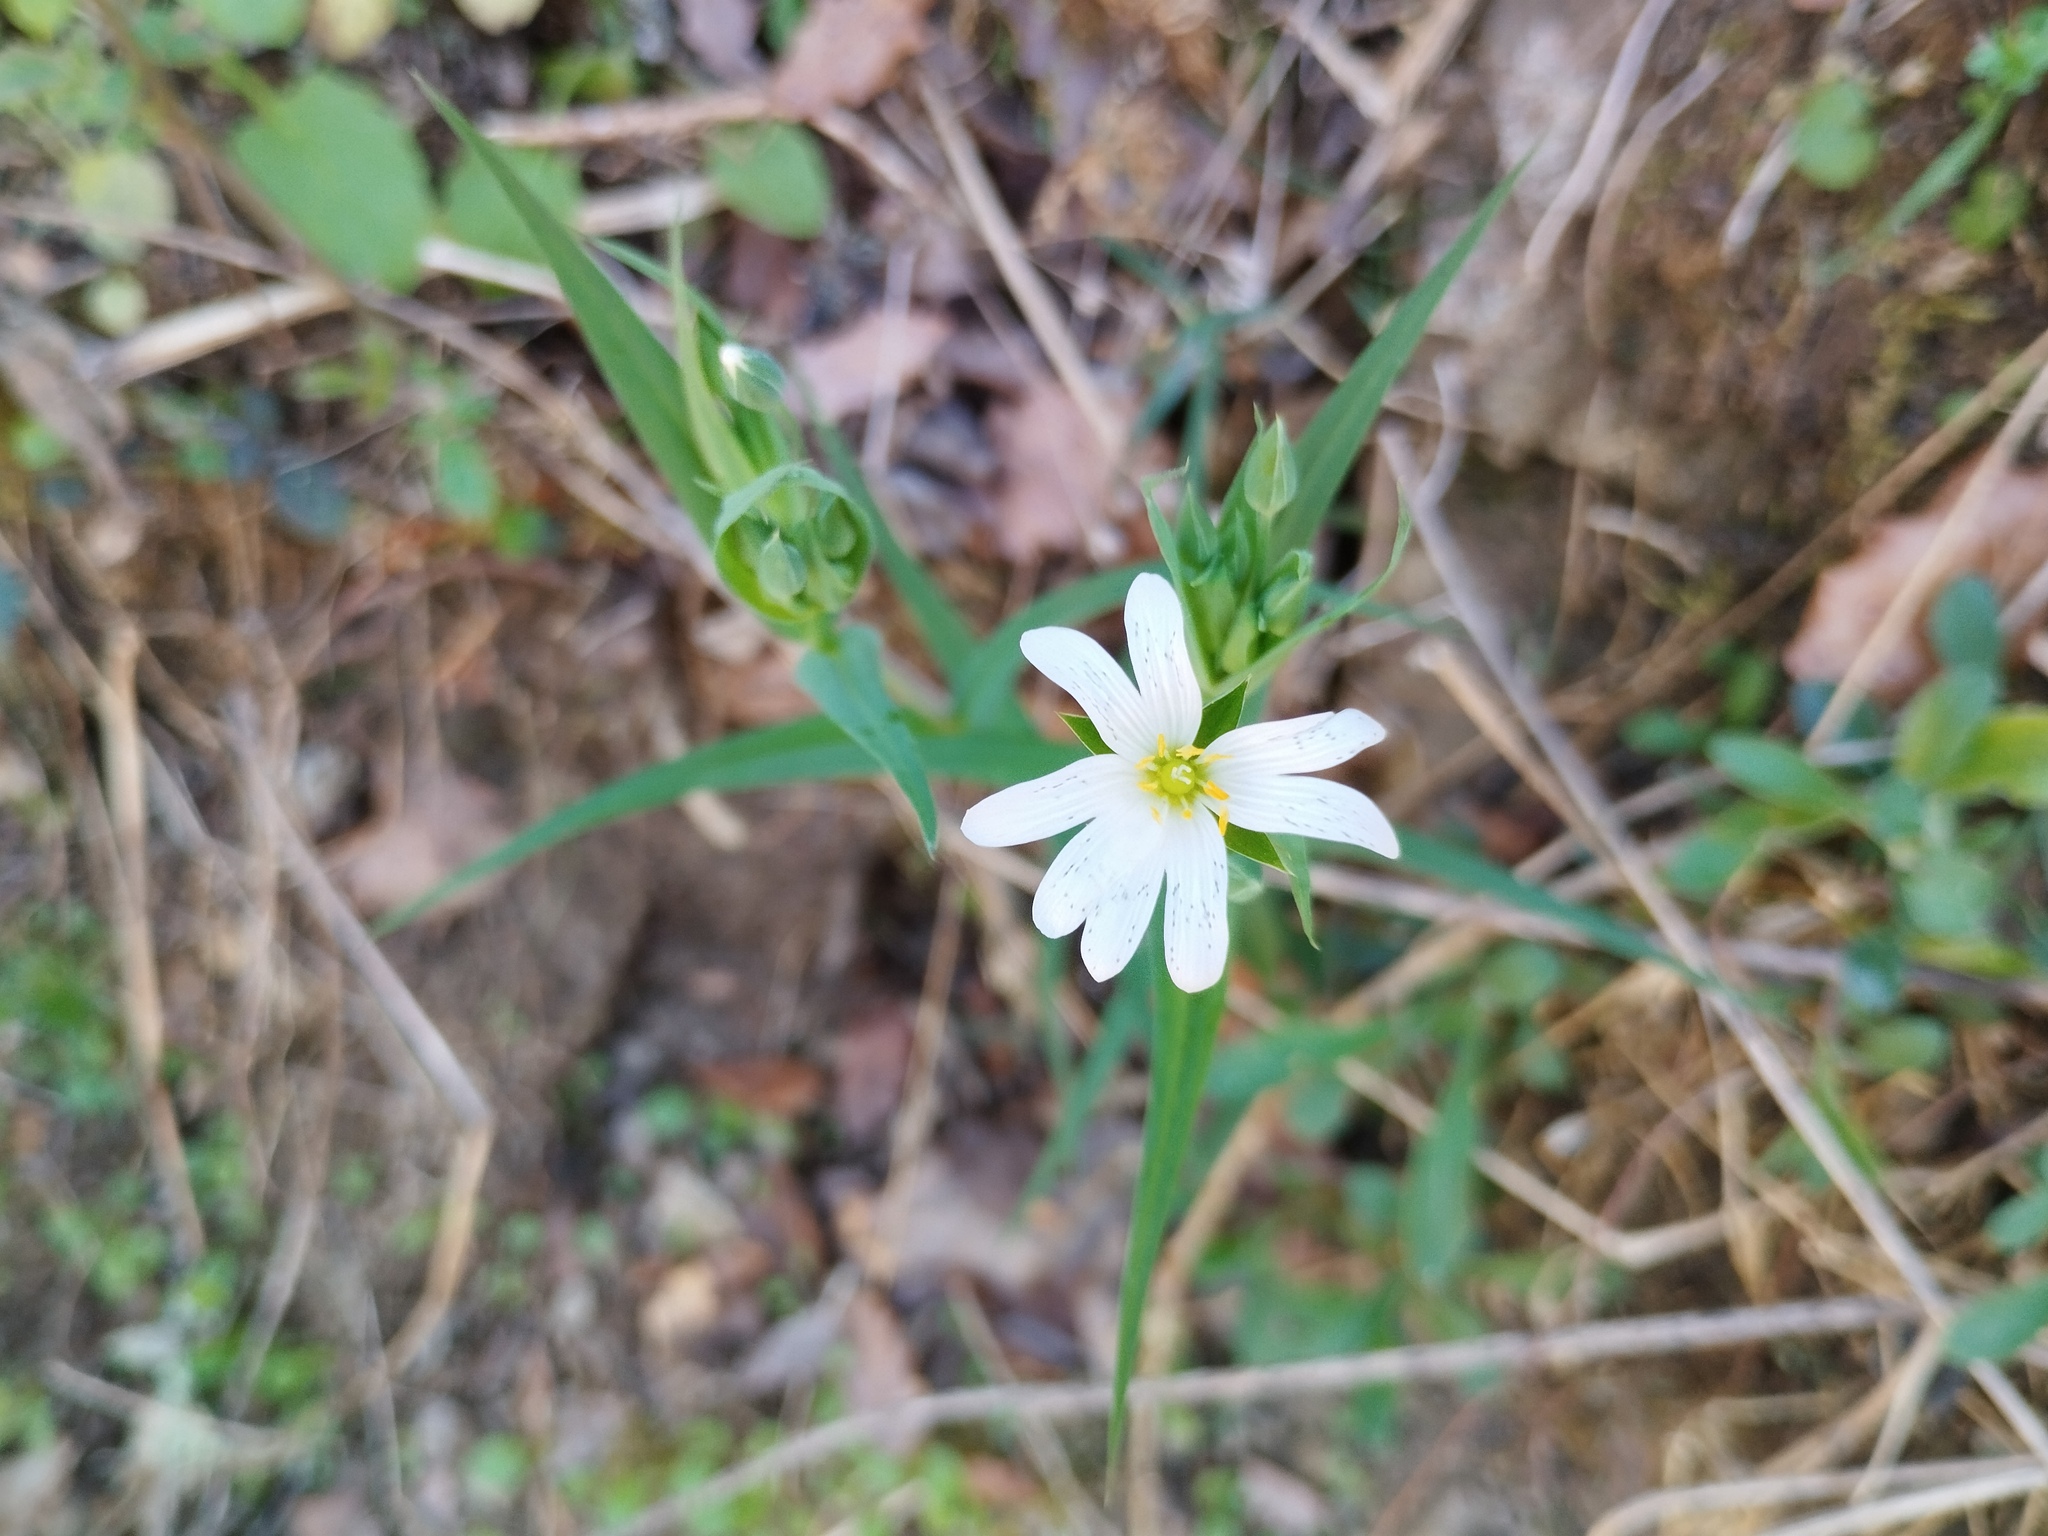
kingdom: Plantae
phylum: Tracheophyta
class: Magnoliopsida
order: Caryophyllales
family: Caryophyllaceae
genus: Rabelera
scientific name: Rabelera holostea
